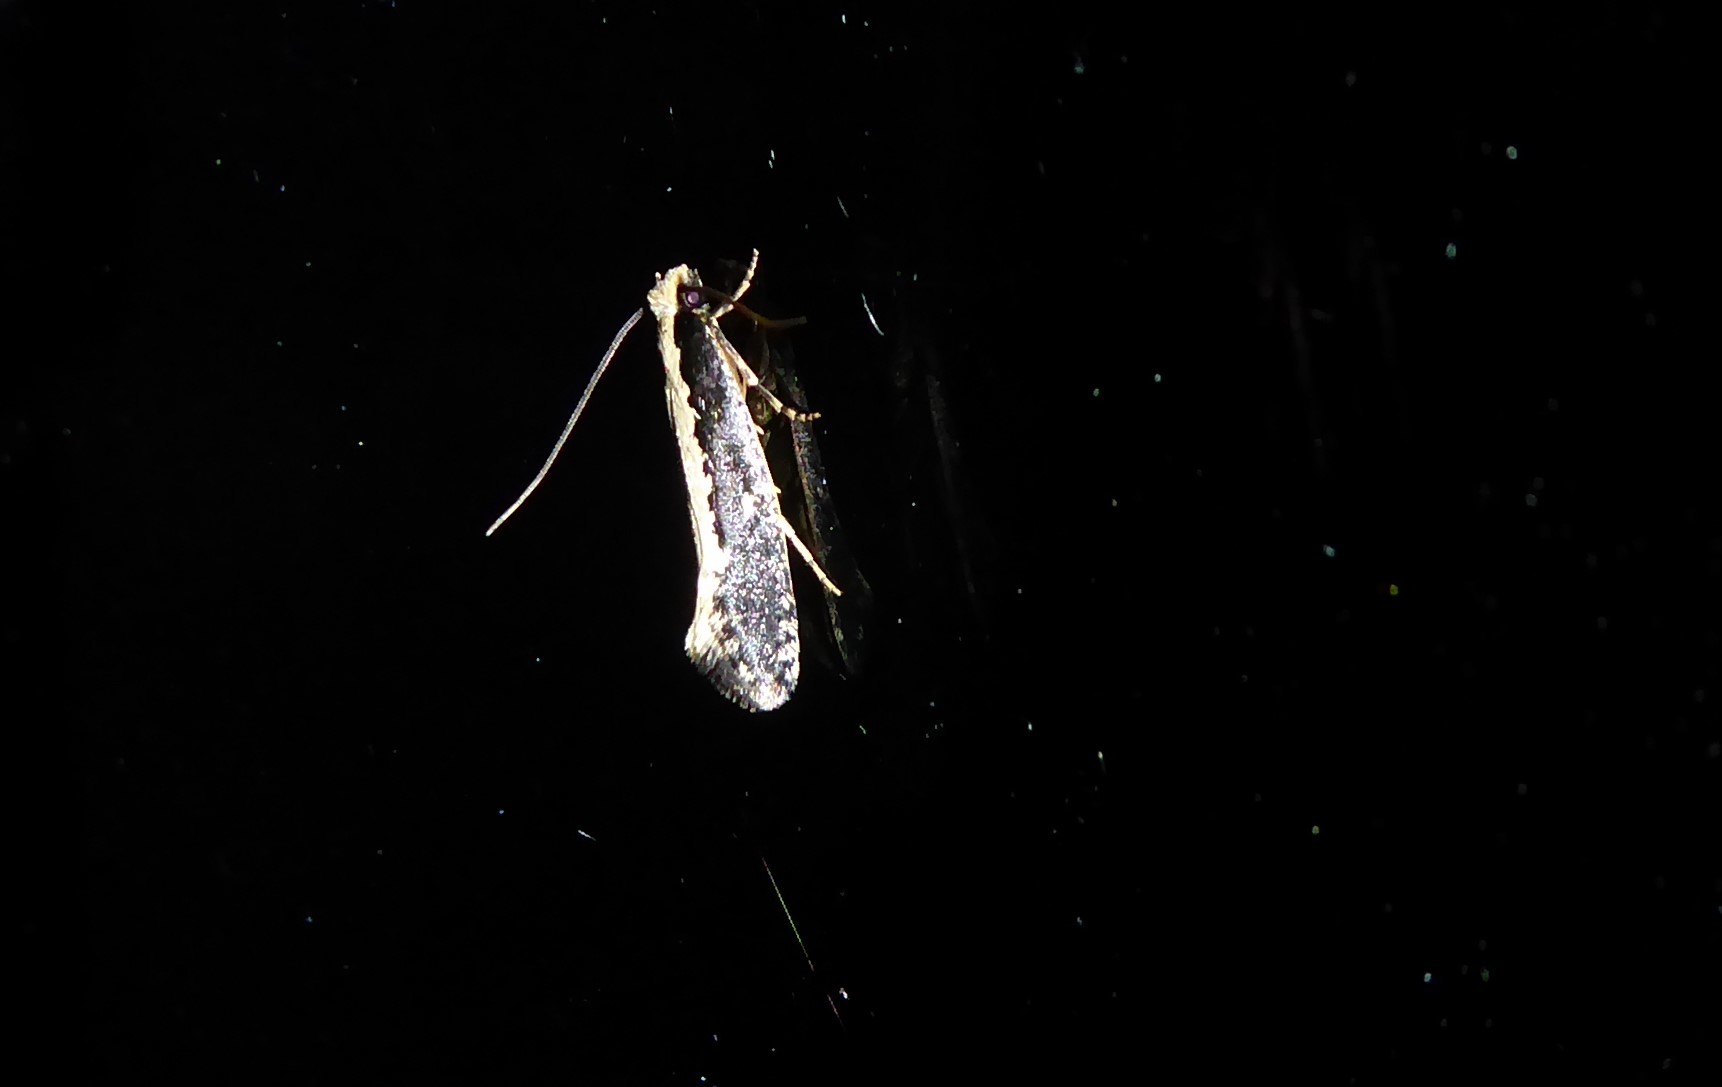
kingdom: Animalia
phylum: Arthropoda
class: Insecta
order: Lepidoptera
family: Tineidae
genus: Monopis
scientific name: Monopis ethelella
